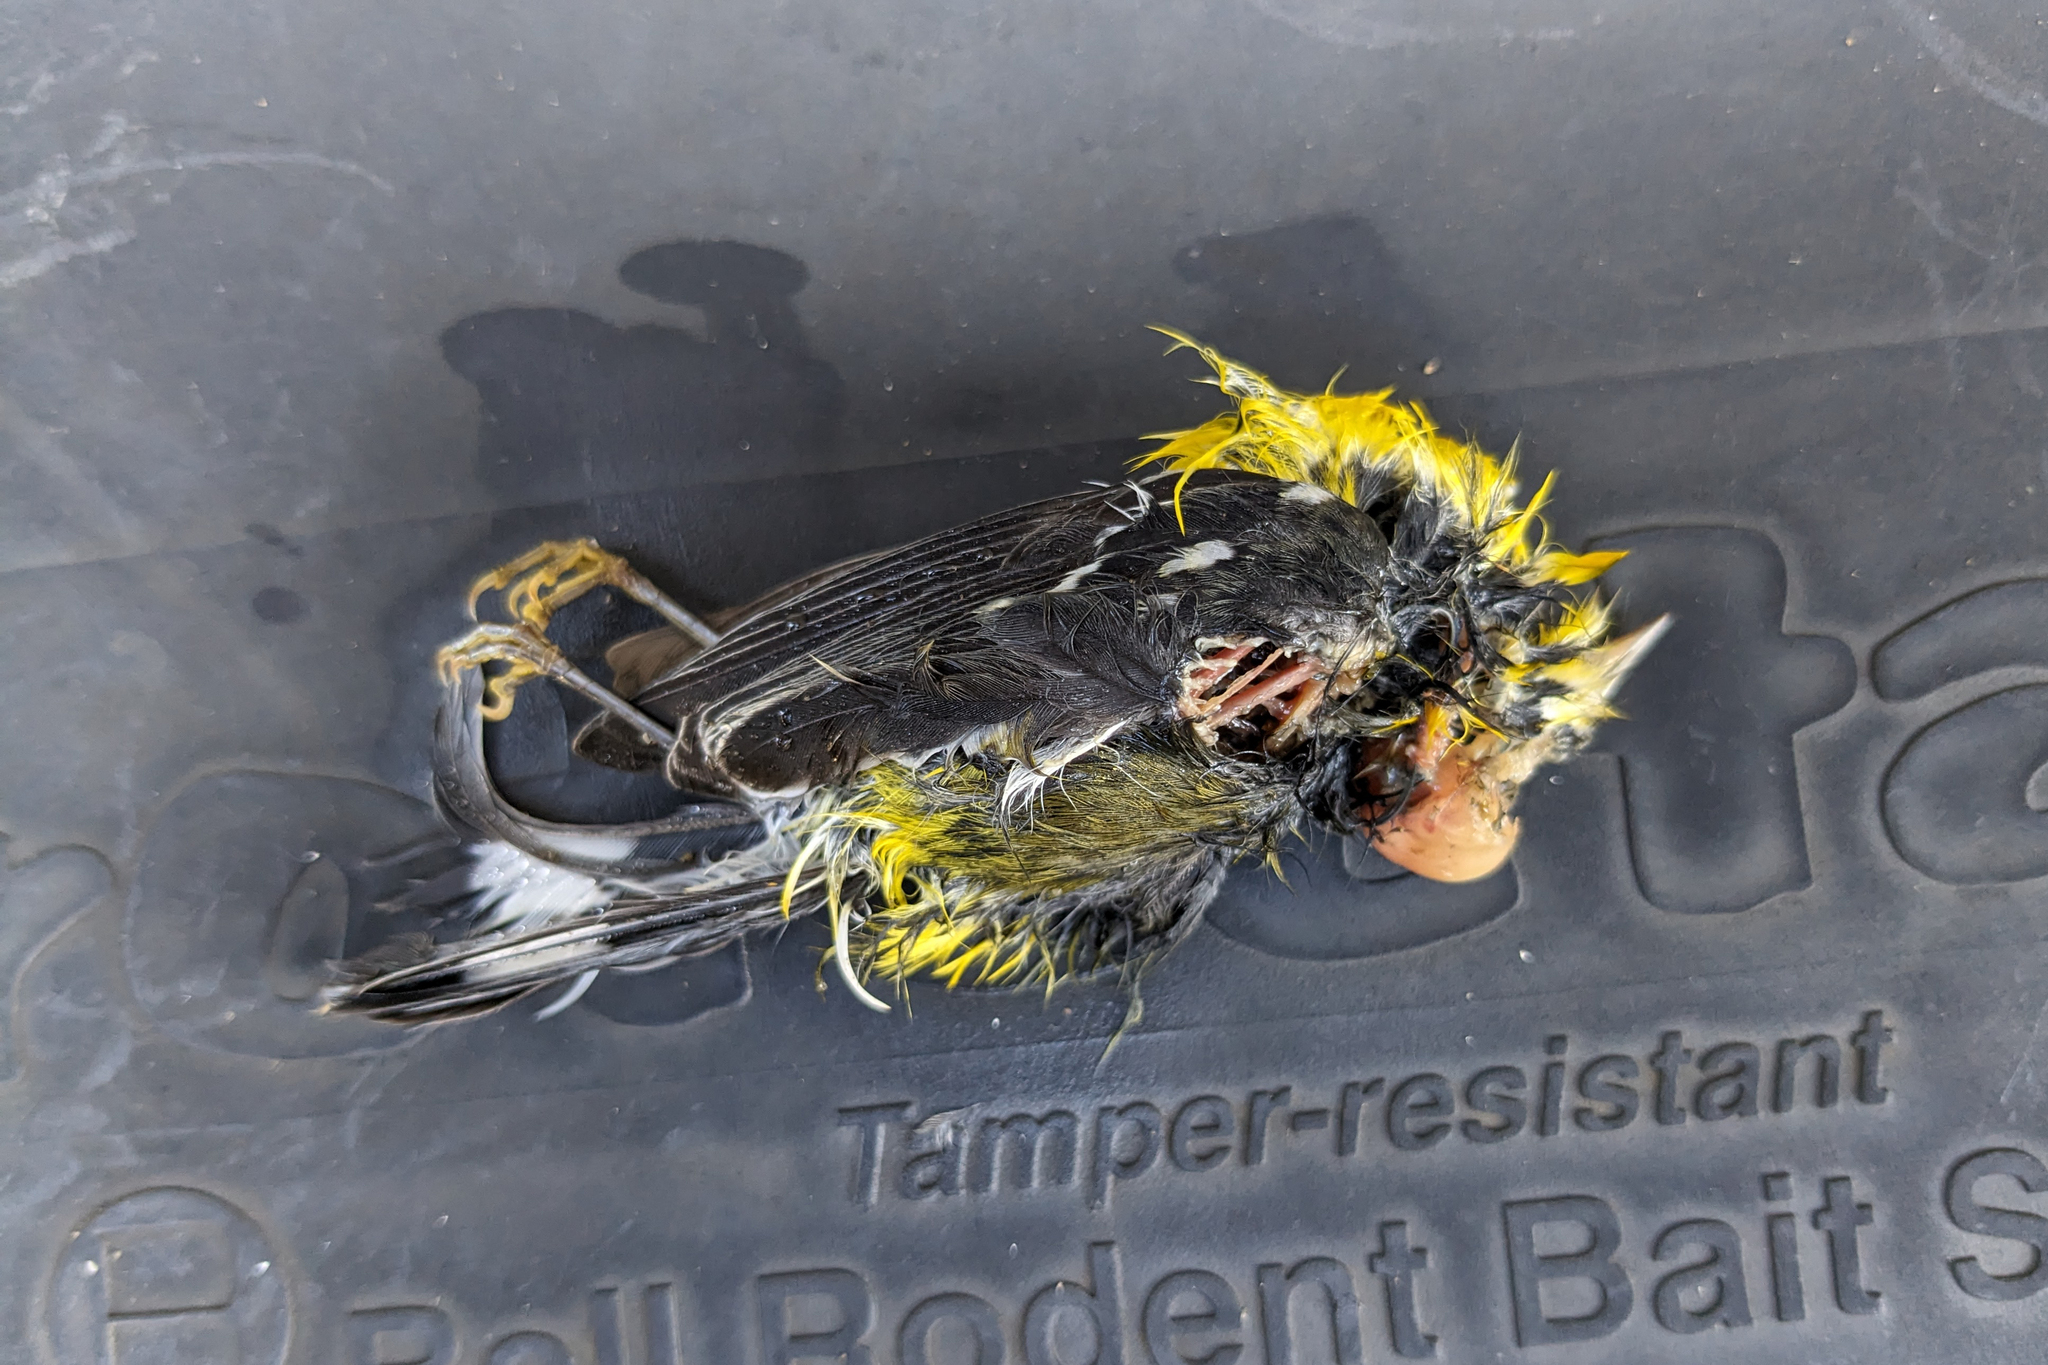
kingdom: Animalia
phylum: Chordata
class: Aves
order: Passeriformes
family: Parulidae
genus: Setophaga
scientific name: Setophaga magnolia
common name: Magnolia warbler
